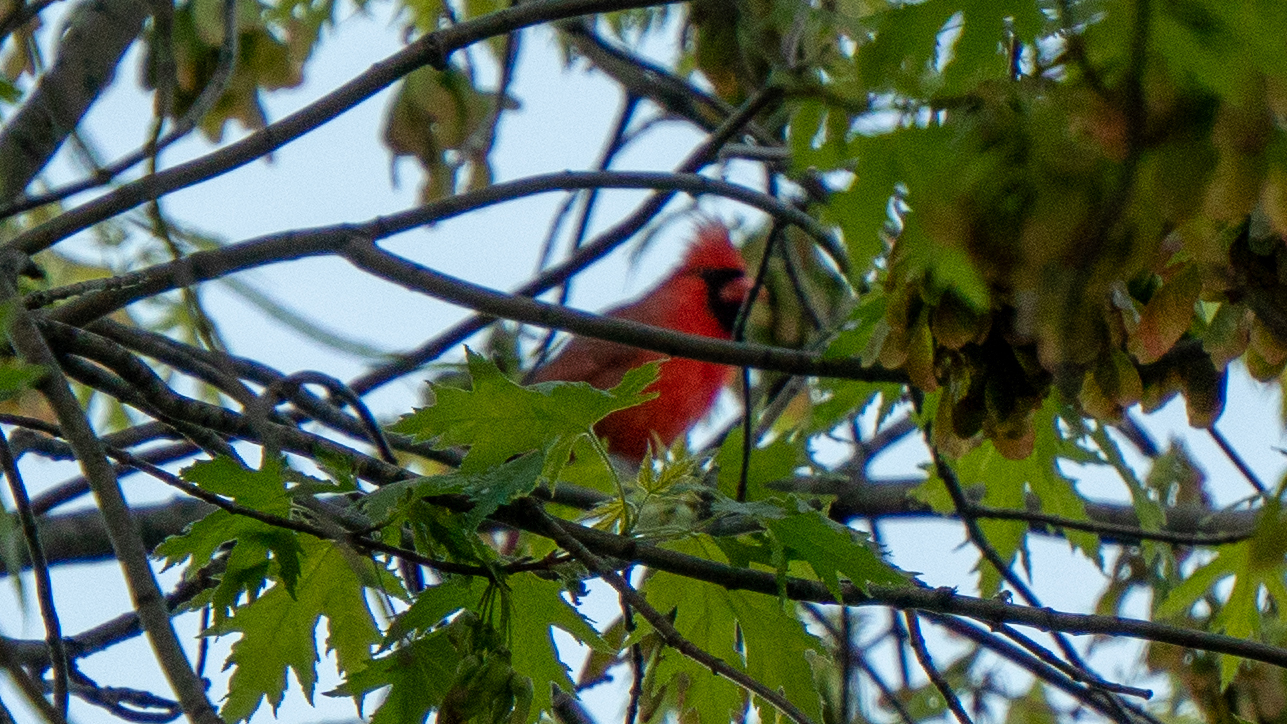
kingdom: Animalia
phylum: Chordata
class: Aves
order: Passeriformes
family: Cardinalidae
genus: Cardinalis
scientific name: Cardinalis cardinalis
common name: Northern cardinal
